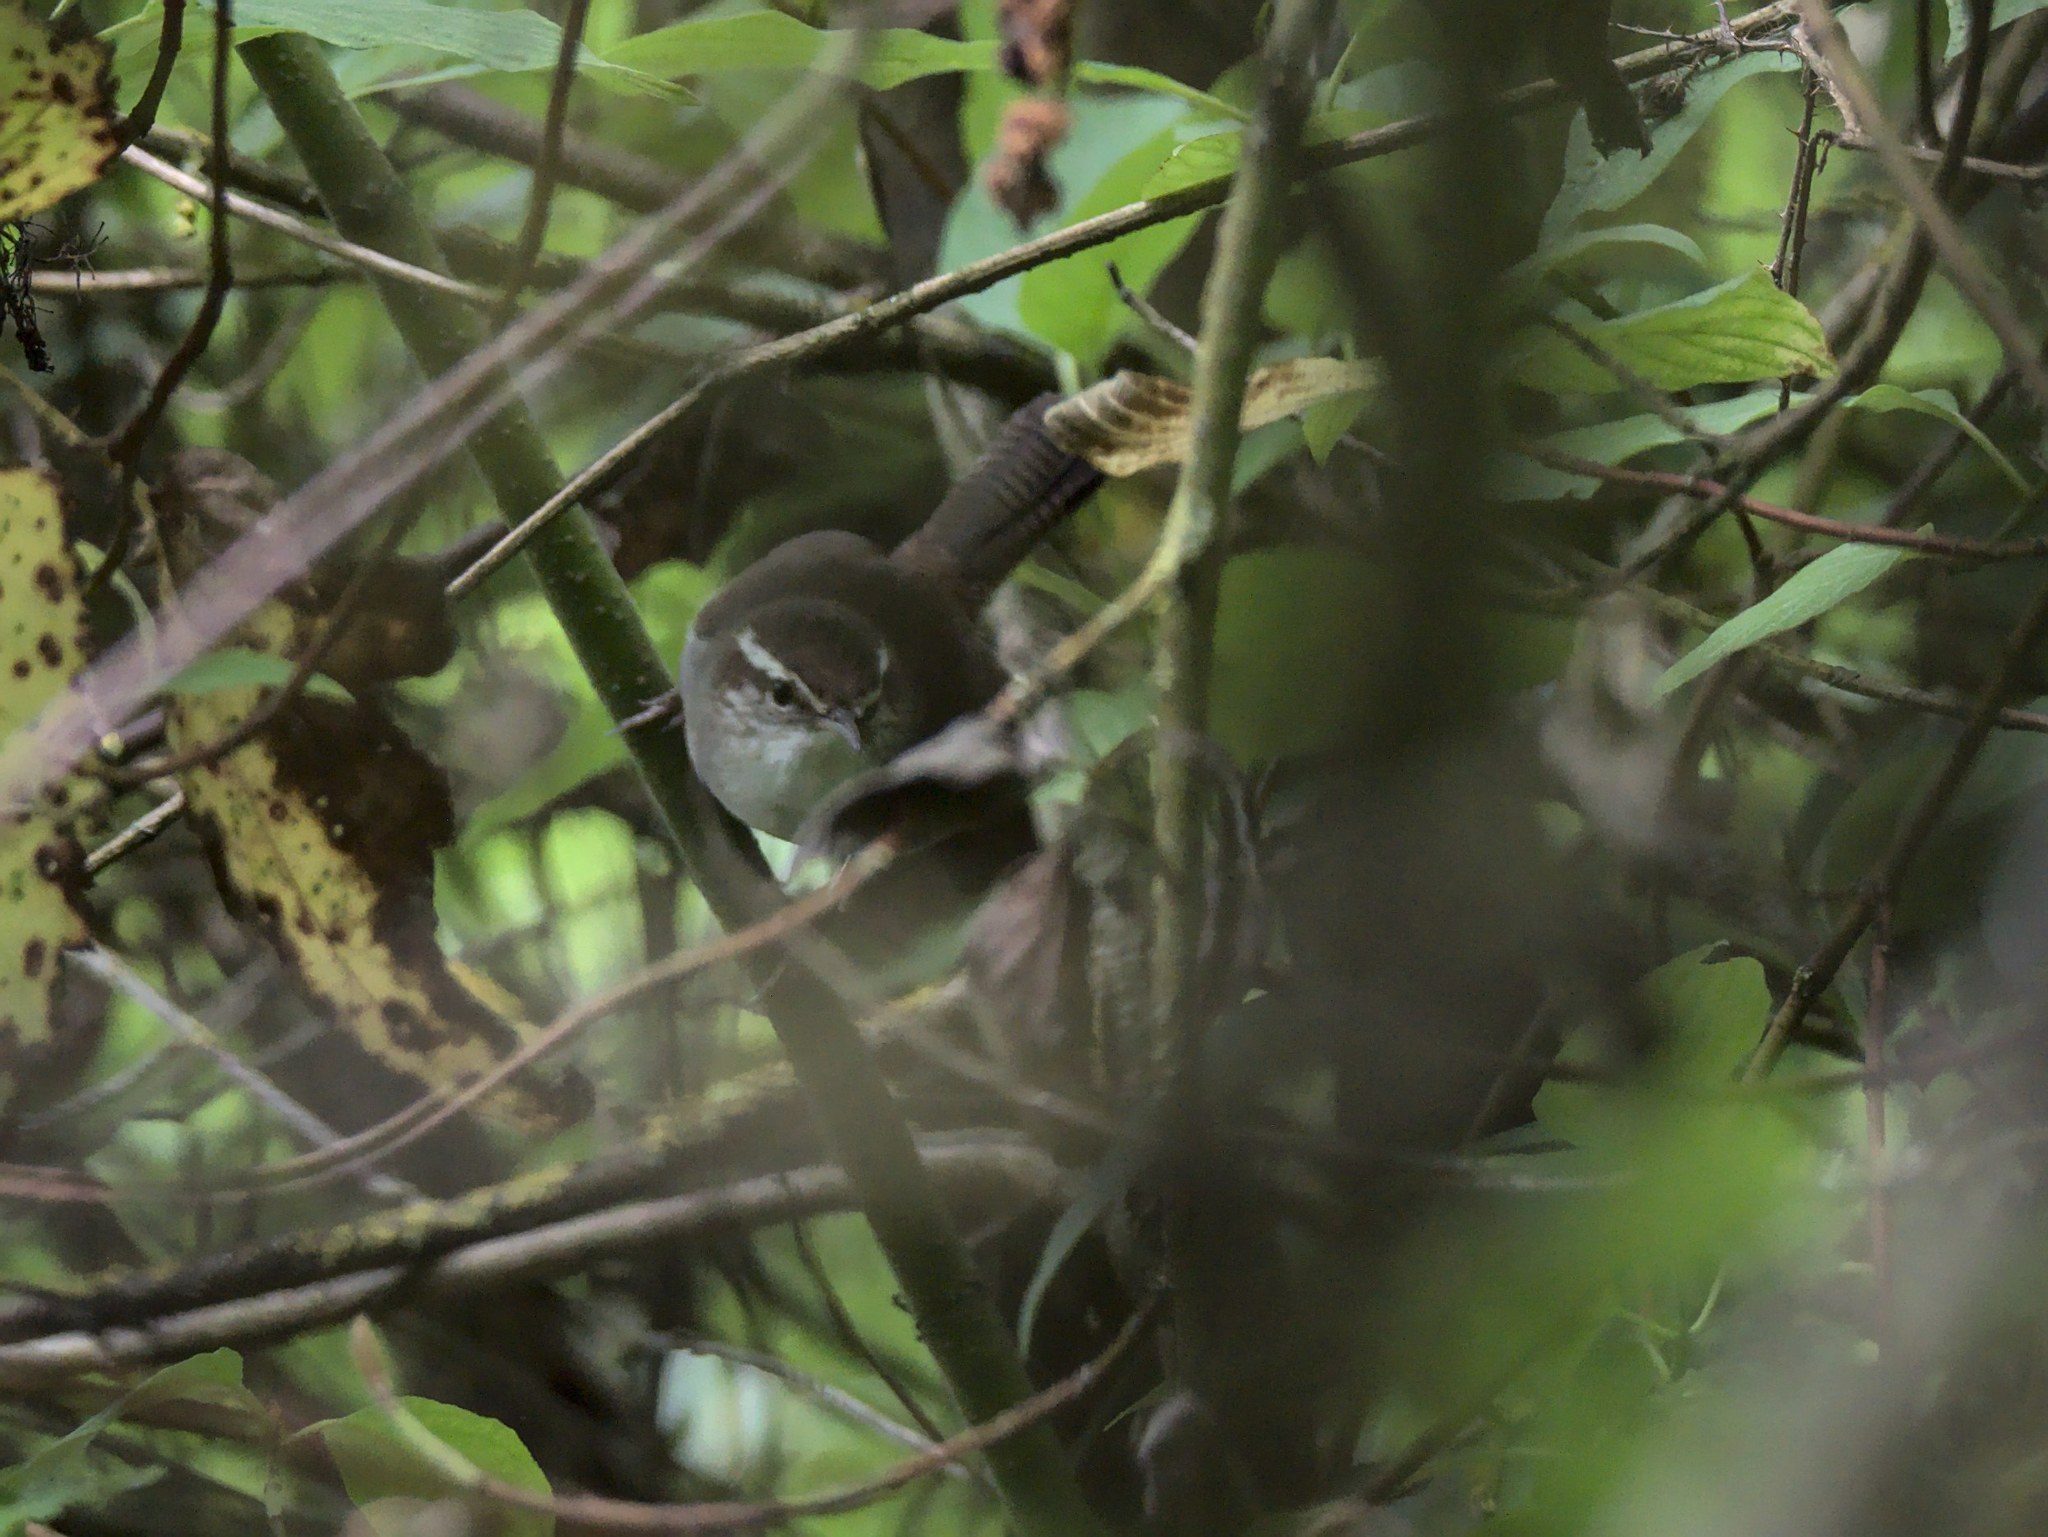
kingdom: Animalia
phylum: Chordata
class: Aves
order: Passeriformes
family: Troglodytidae
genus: Thryomanes
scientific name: Thryomanes bewickii
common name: Bewick's wren
